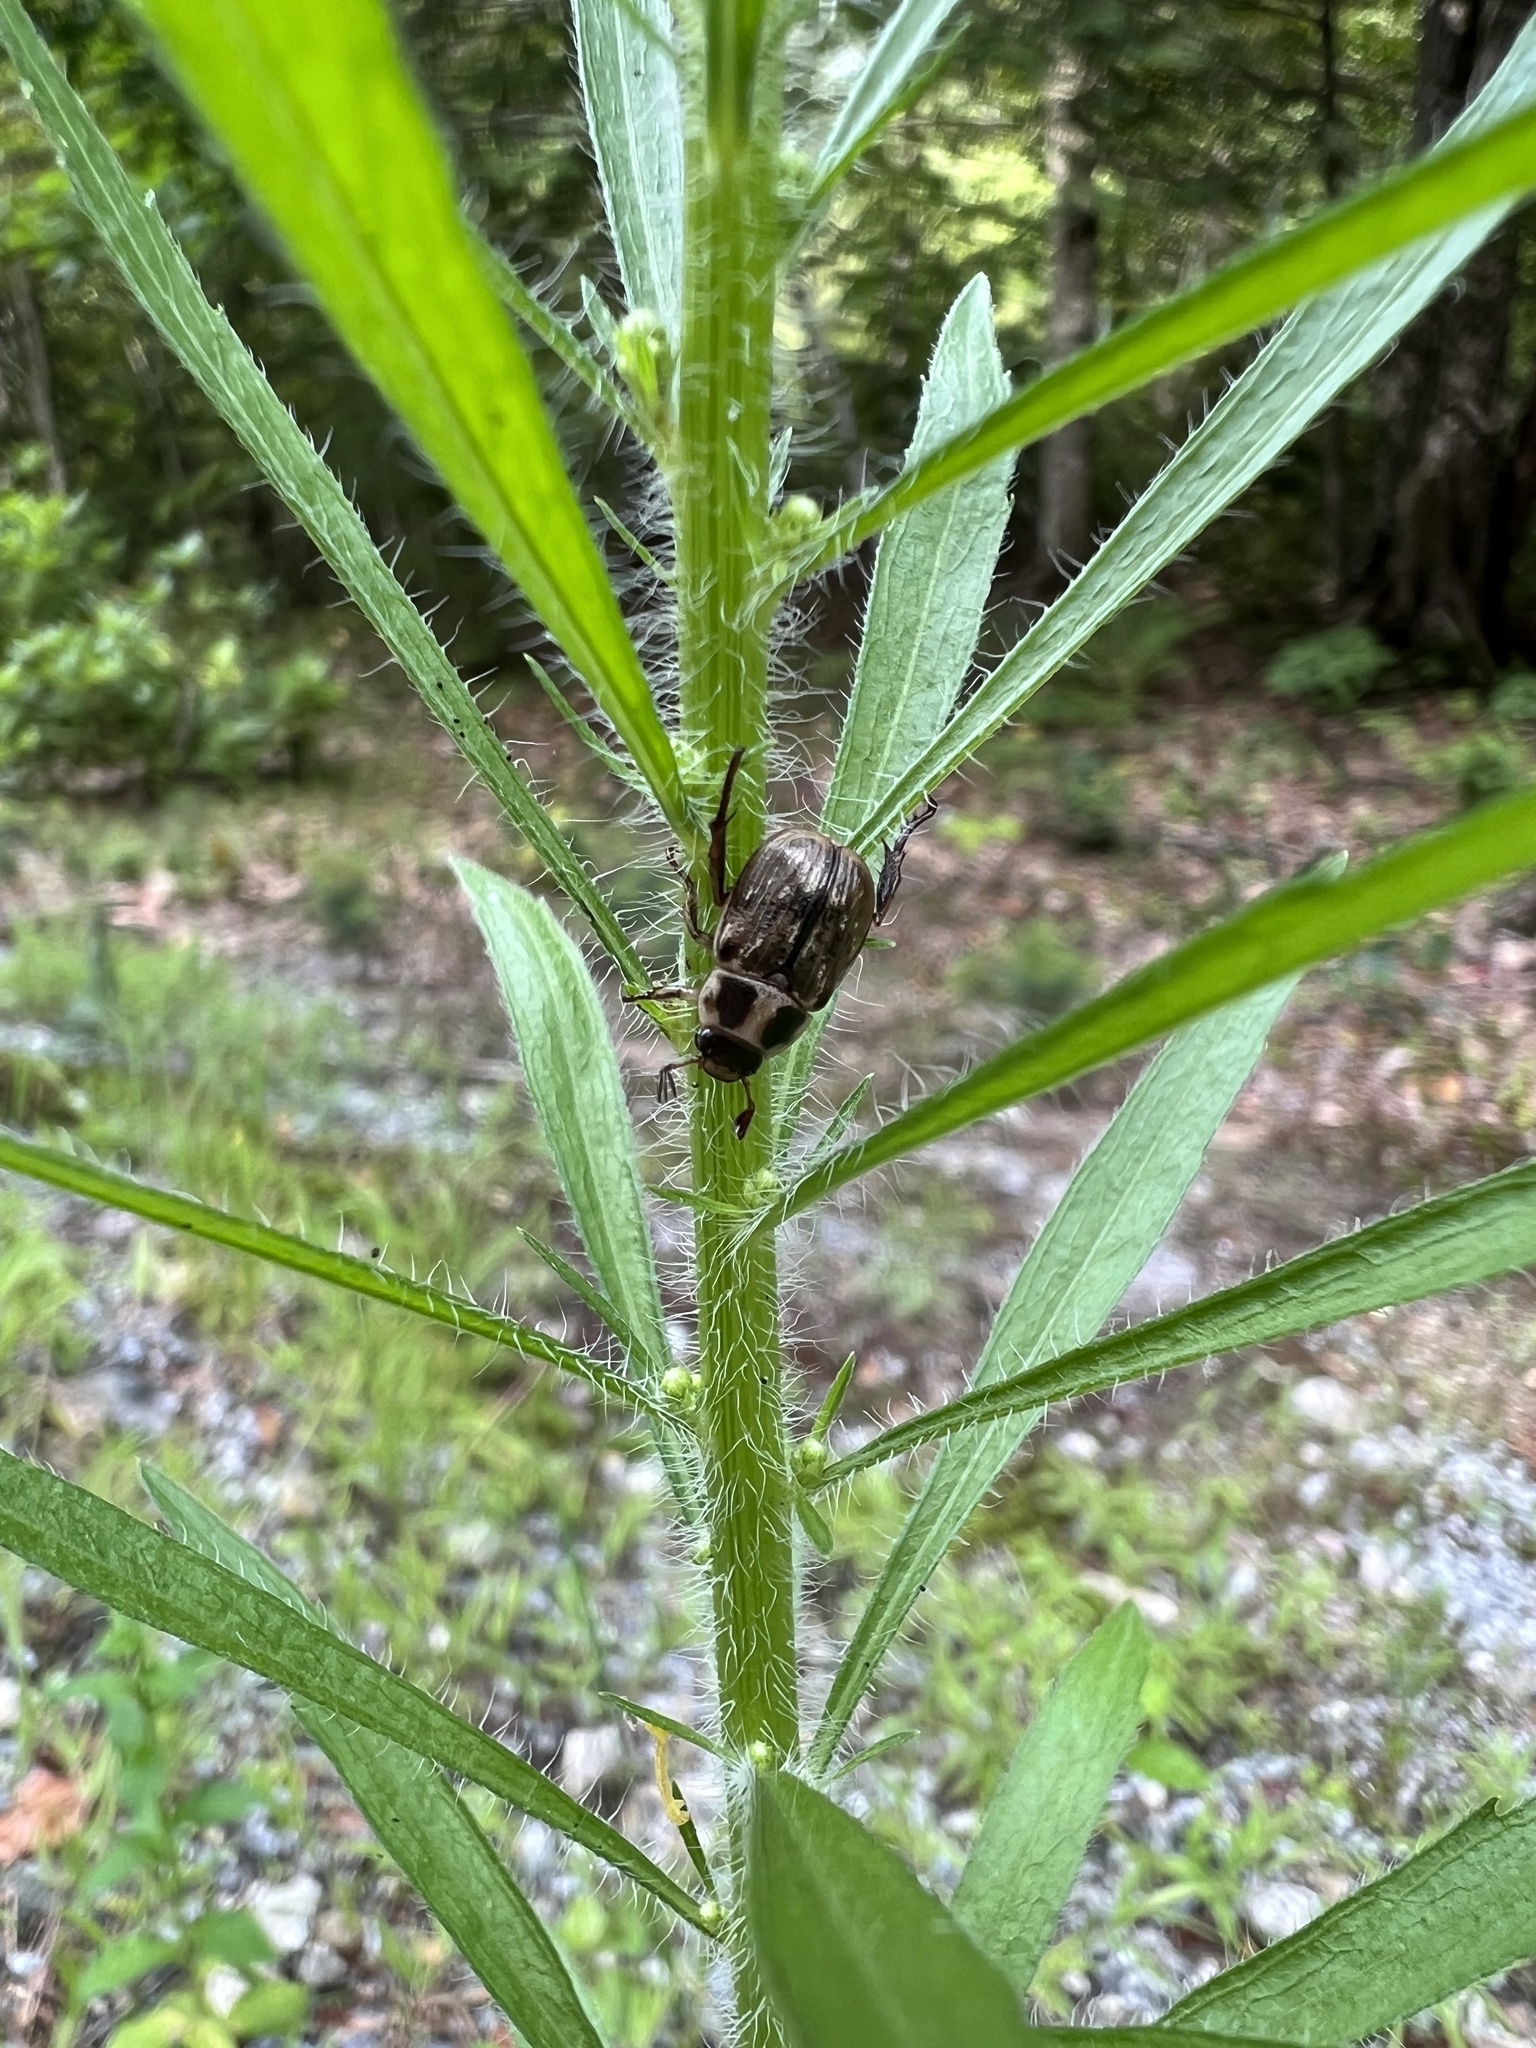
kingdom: Animalia
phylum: Arthropoda
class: Insecta
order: Coleoptera
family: Scarabaeidae
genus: Exomala
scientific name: Exomala orientalis
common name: Oriental beetle
